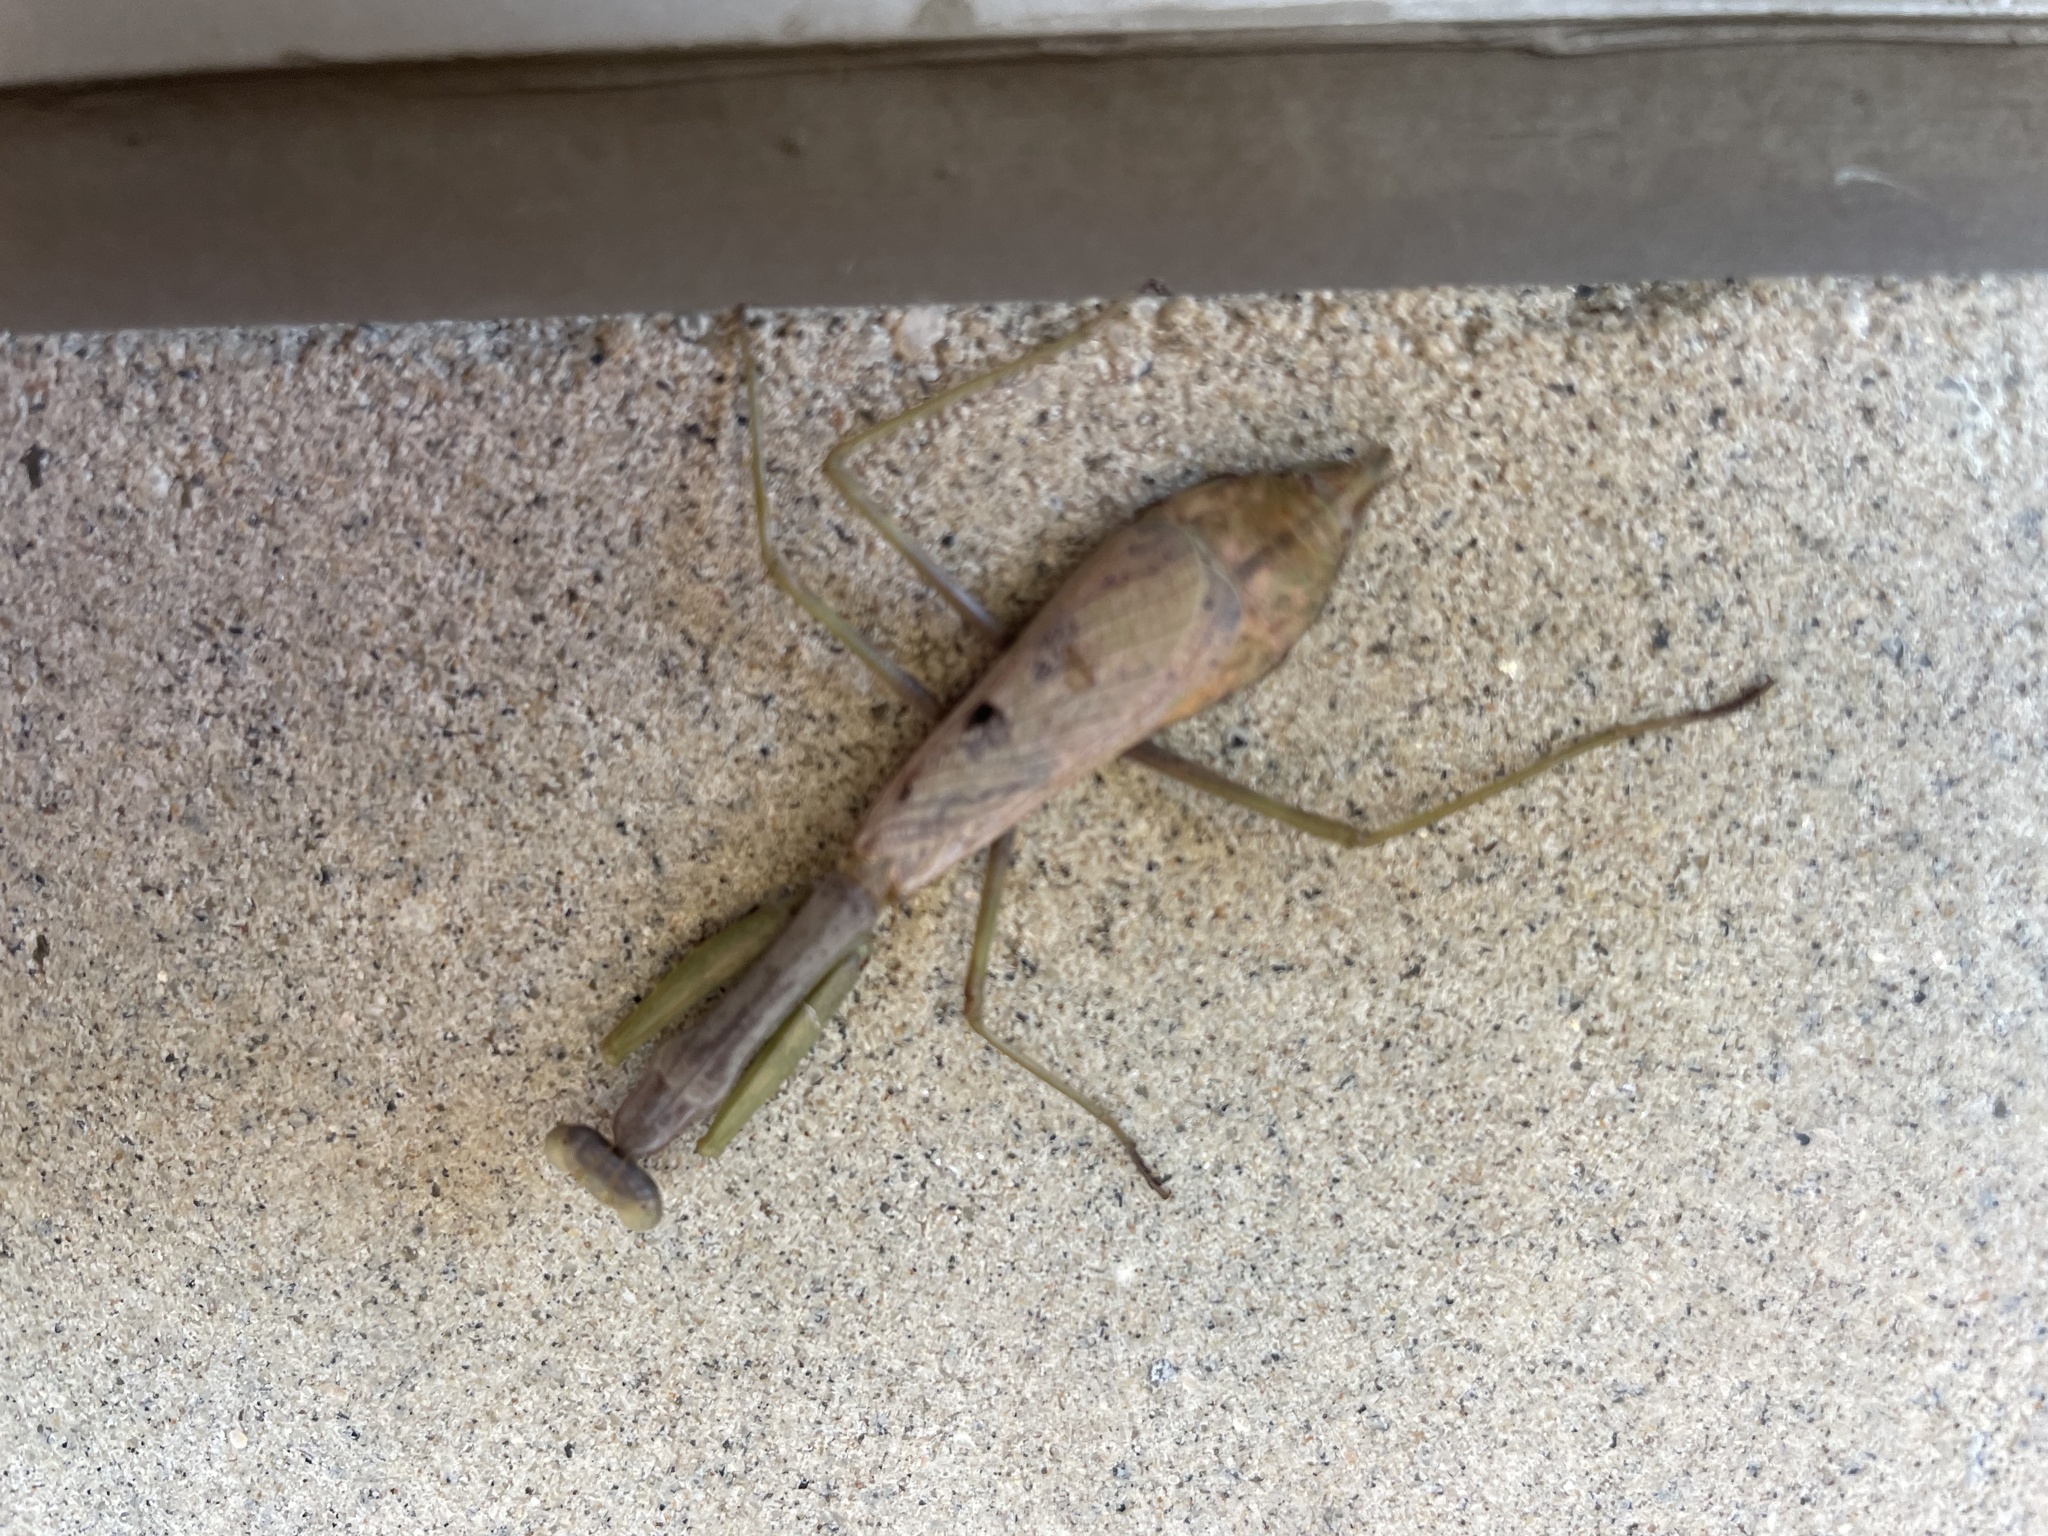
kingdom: Animalia
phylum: Arthropoda
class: Insecta
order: Mantodea
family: Mantidae
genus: Stagmomantis
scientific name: Stagmomantis carolina
